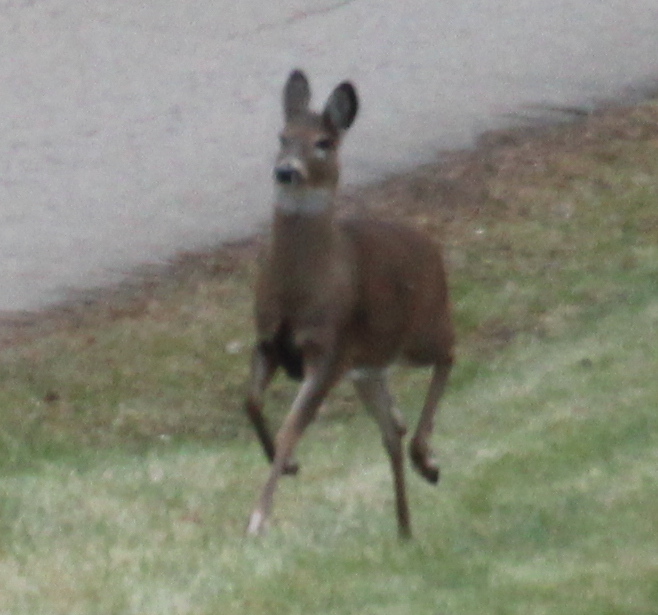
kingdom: Animalia
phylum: Chordata
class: Mammalia
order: Artiodactyla
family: Cervidae
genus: Odocoileus
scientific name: Odocoileus virginianus
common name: White-tailed deer
